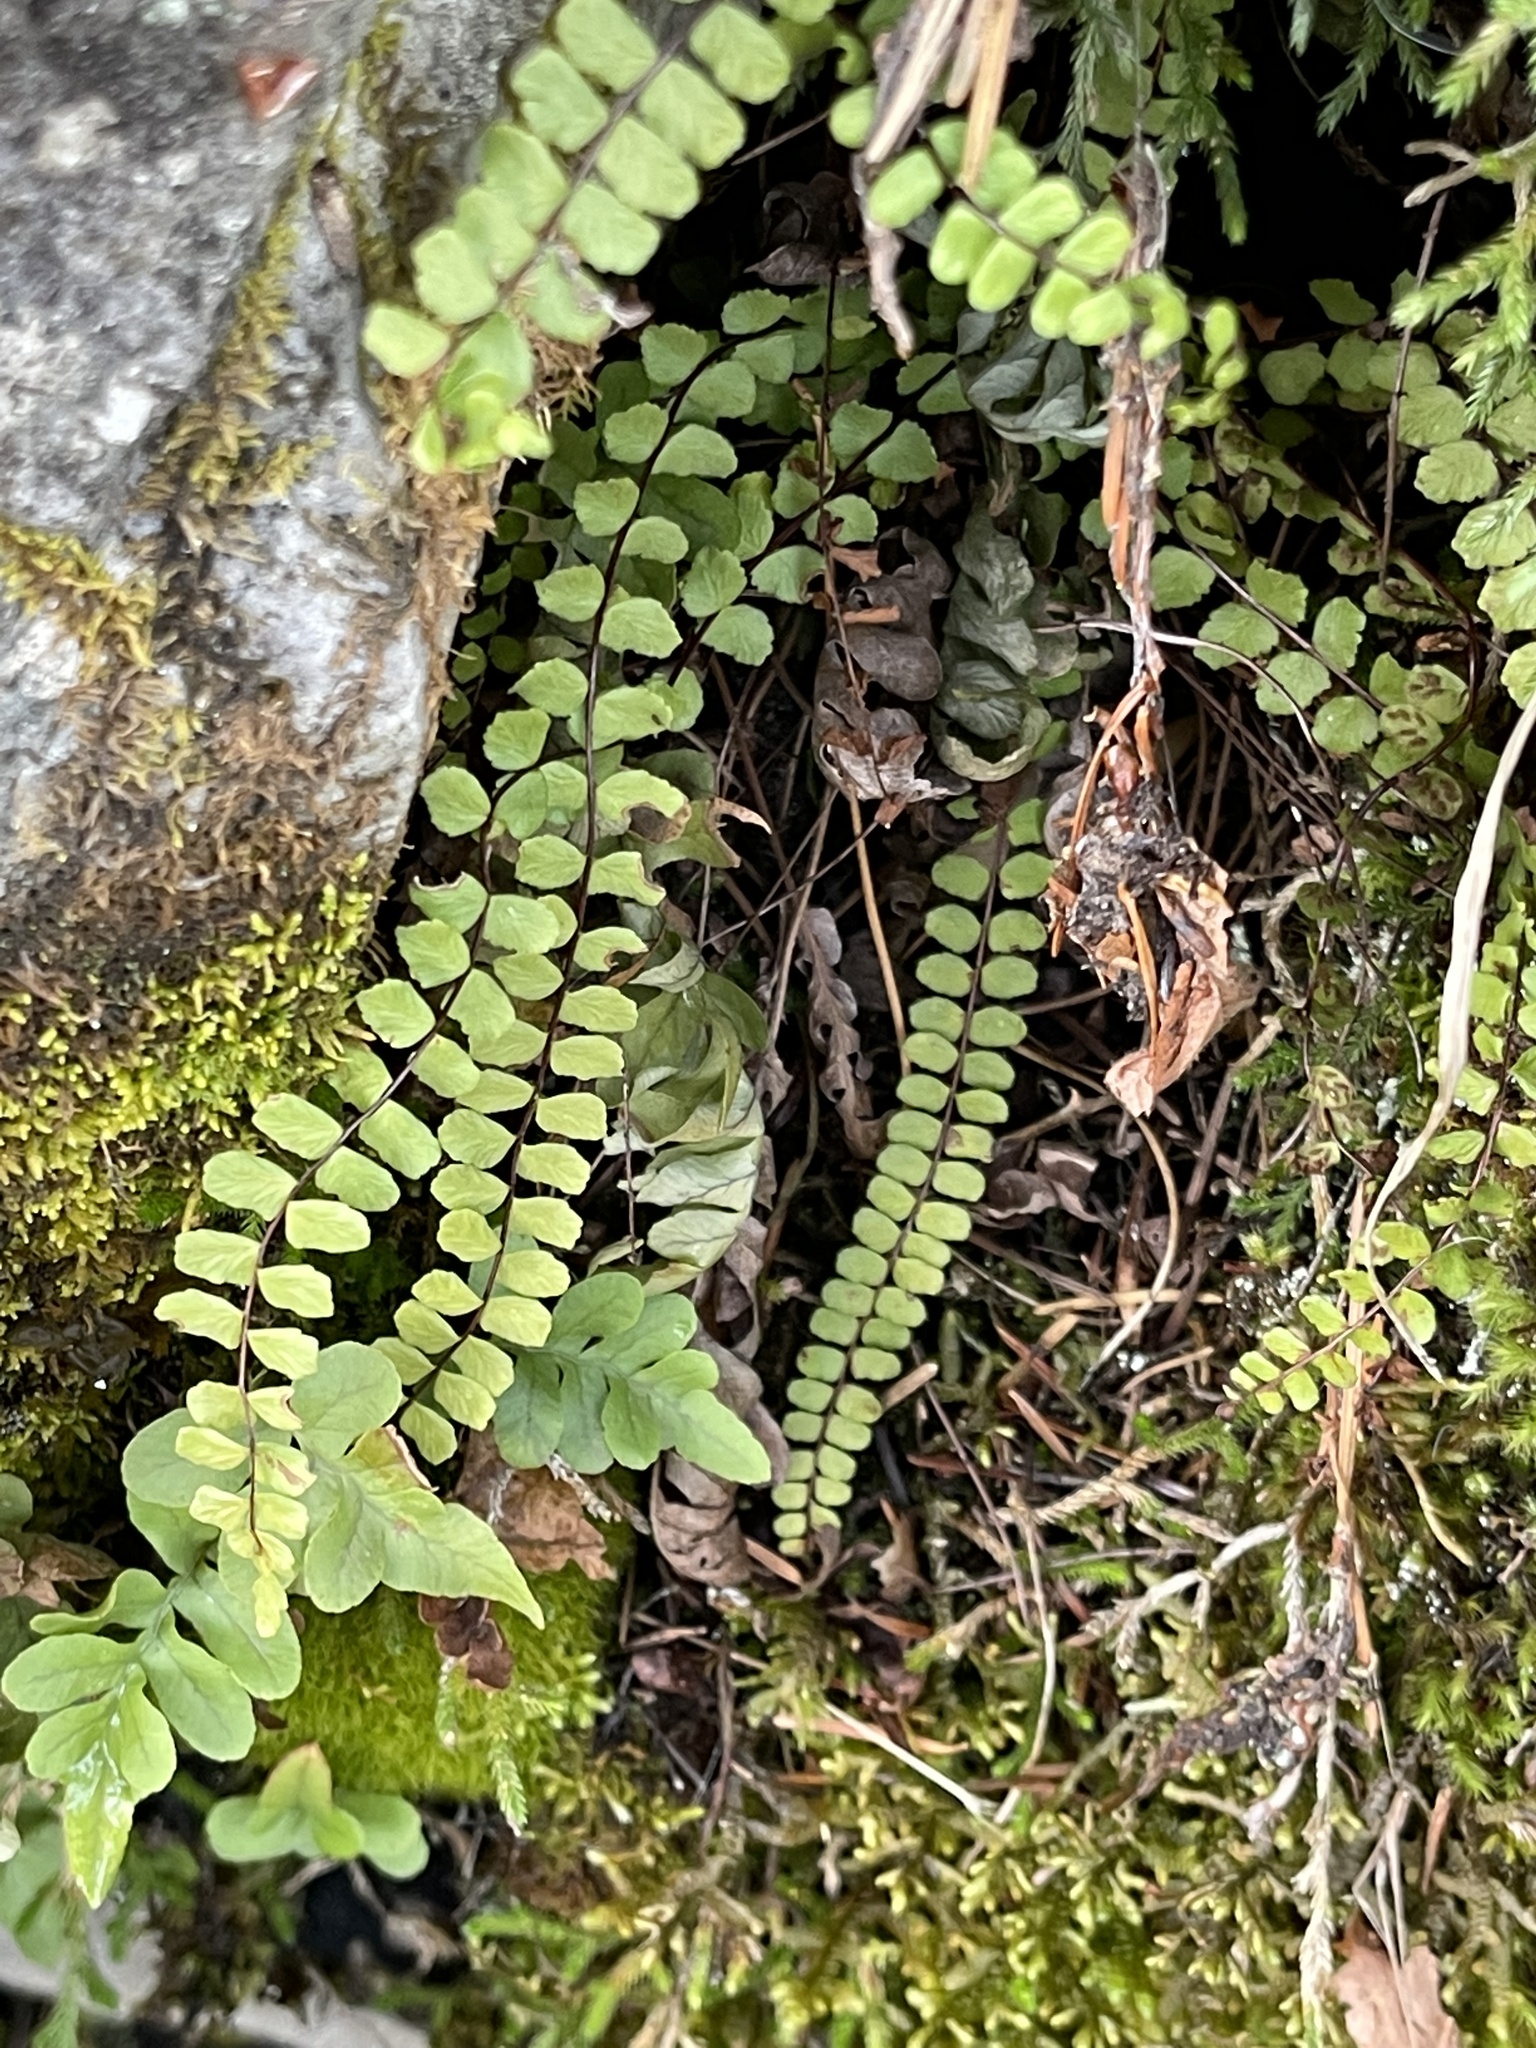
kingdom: Plantae
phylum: Tracheophyta
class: Polypodiopsida
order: Polypodiales
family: Aspleniaceae
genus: Asplenium
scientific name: Asplenium trichomanes
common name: Maidenhair spleenwort
